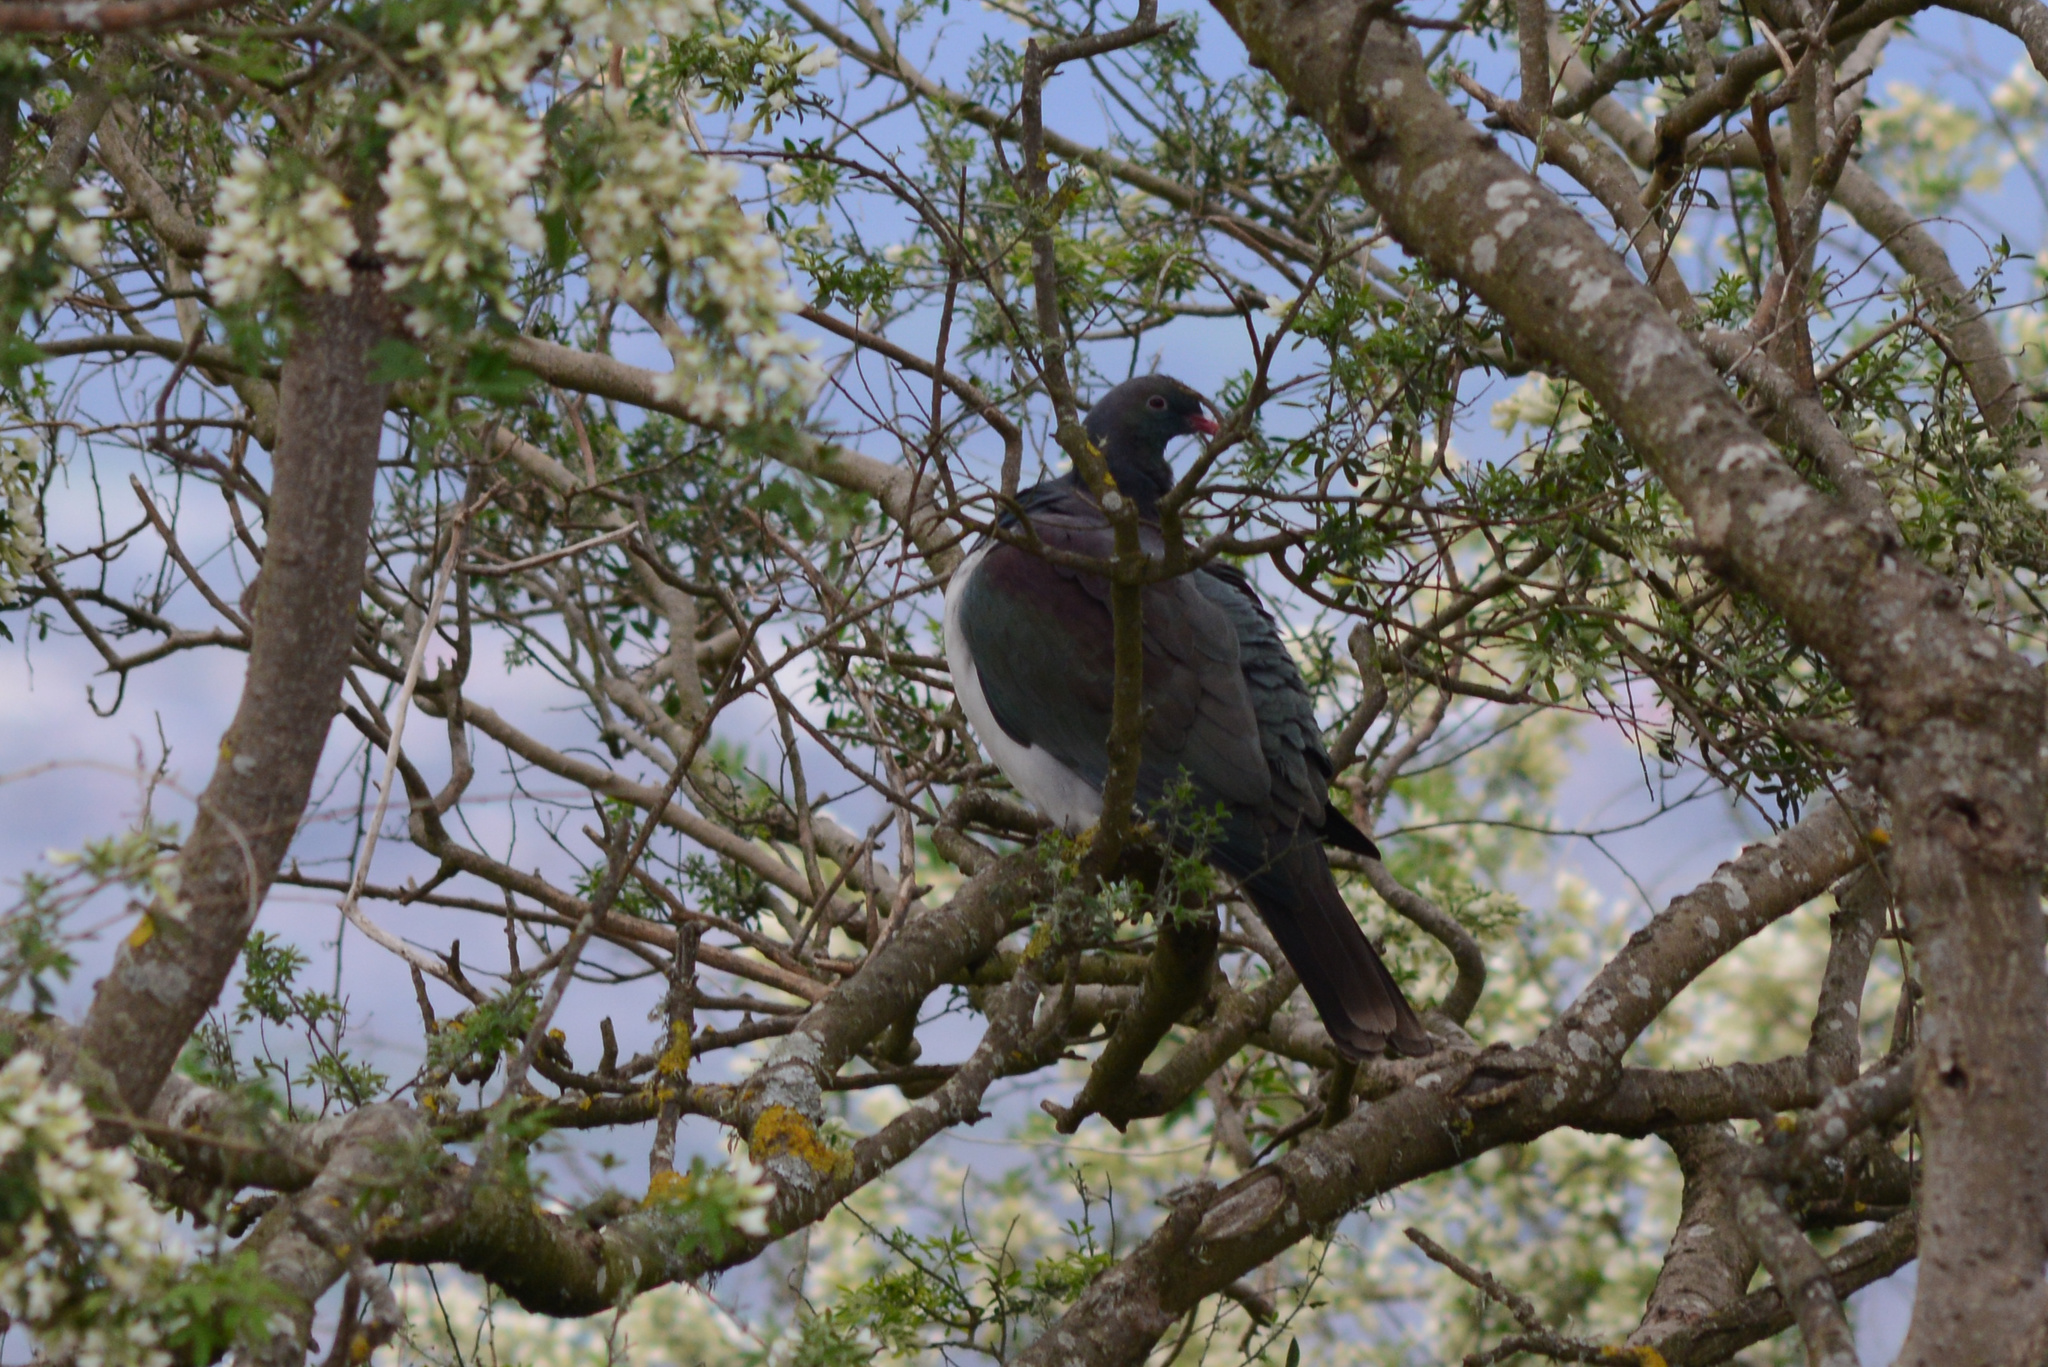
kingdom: Animalia
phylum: Chordata
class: Aves
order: Columbiformes
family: Columbidae
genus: Hemiphaga
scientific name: Hemiphaga novaeseelandiae
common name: New zealand pigeon
